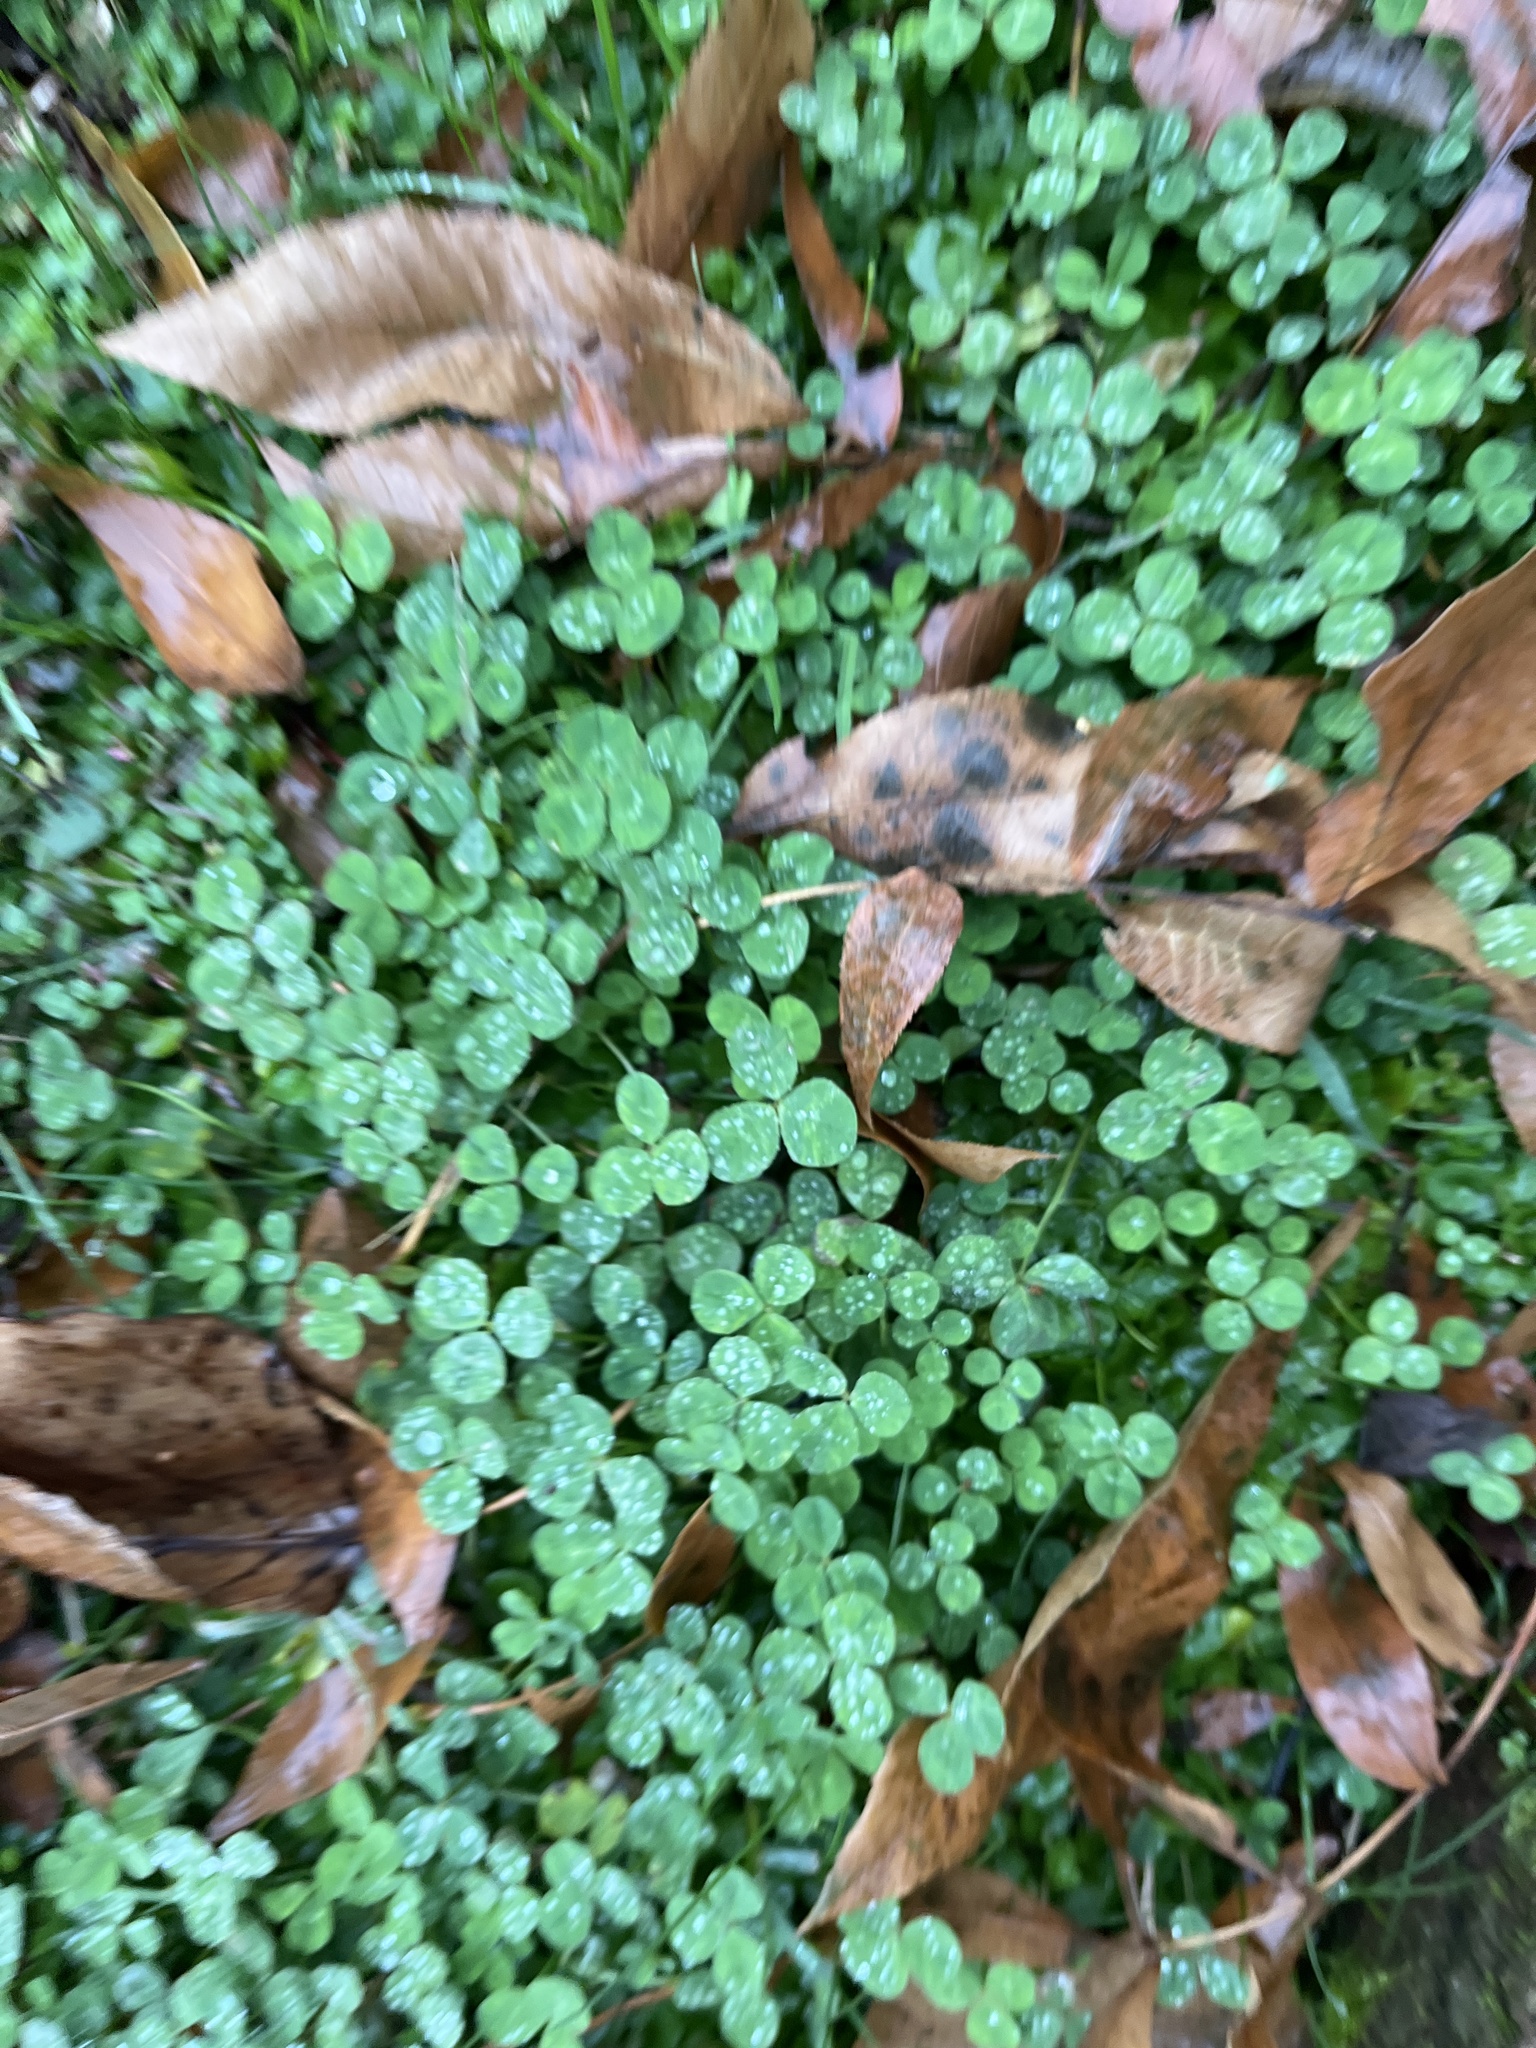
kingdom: Plantae
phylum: Tracheophyta
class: Magnoliopsida
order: Fabales
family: Fabaceae
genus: Trifolium
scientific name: Trifolium repens
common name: White clover
